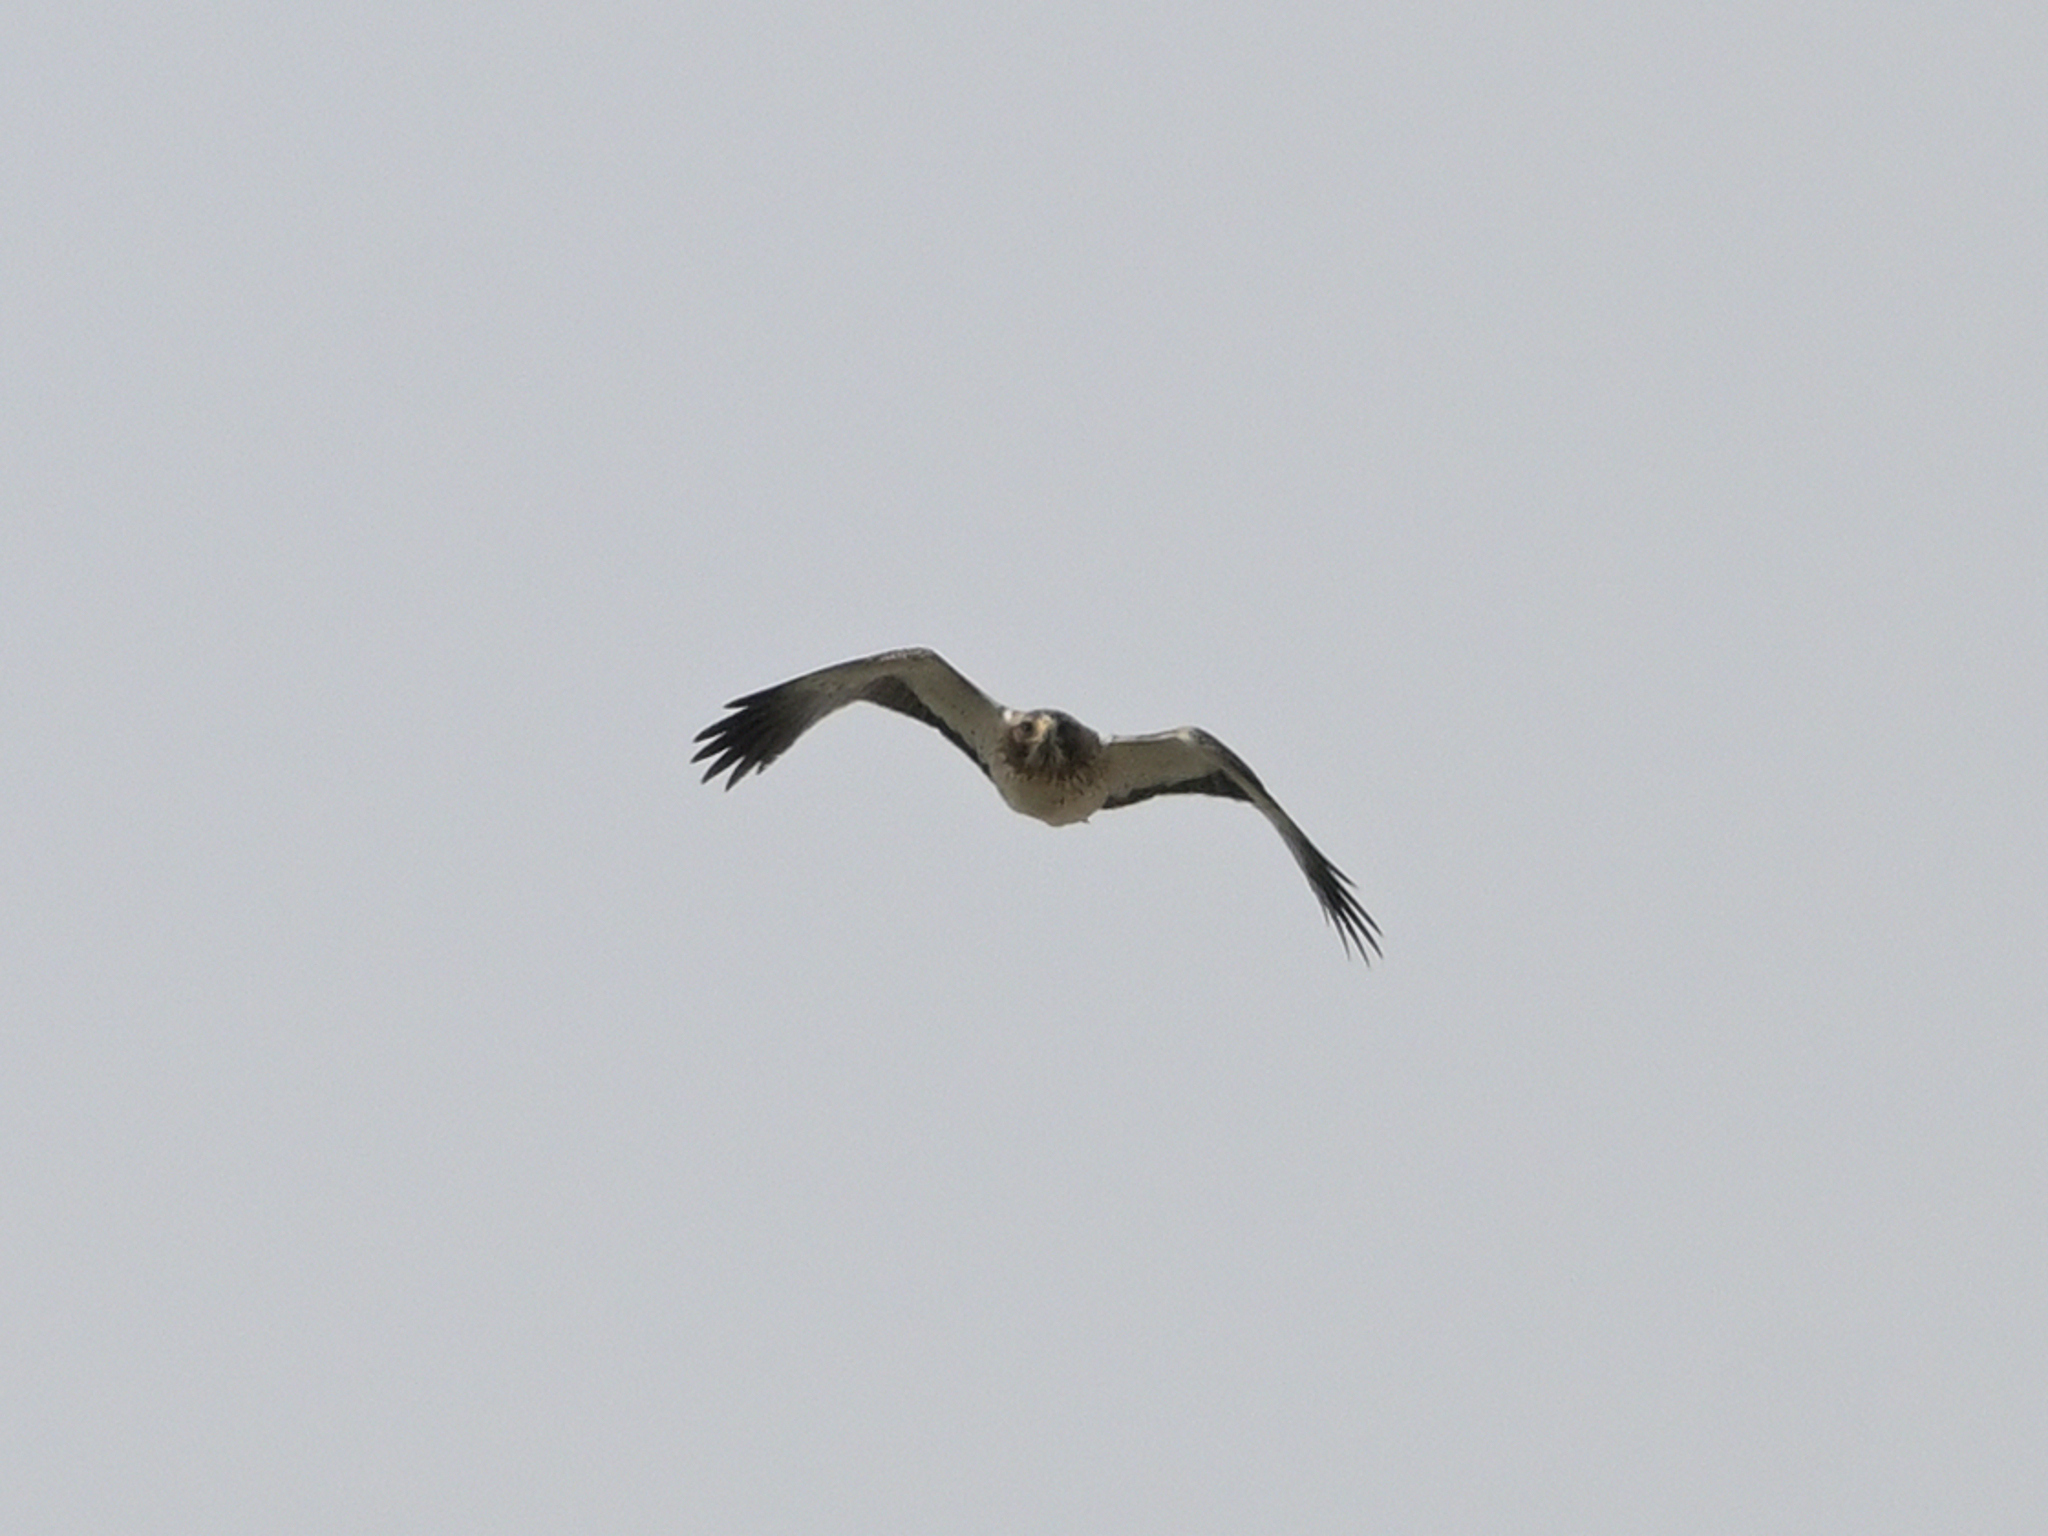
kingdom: Animalia
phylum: Chordata
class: Aves
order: Accipitriformes
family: Accipitridae
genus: Hieraaetus
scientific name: Hieraaetus pennatus
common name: Booted eagle
